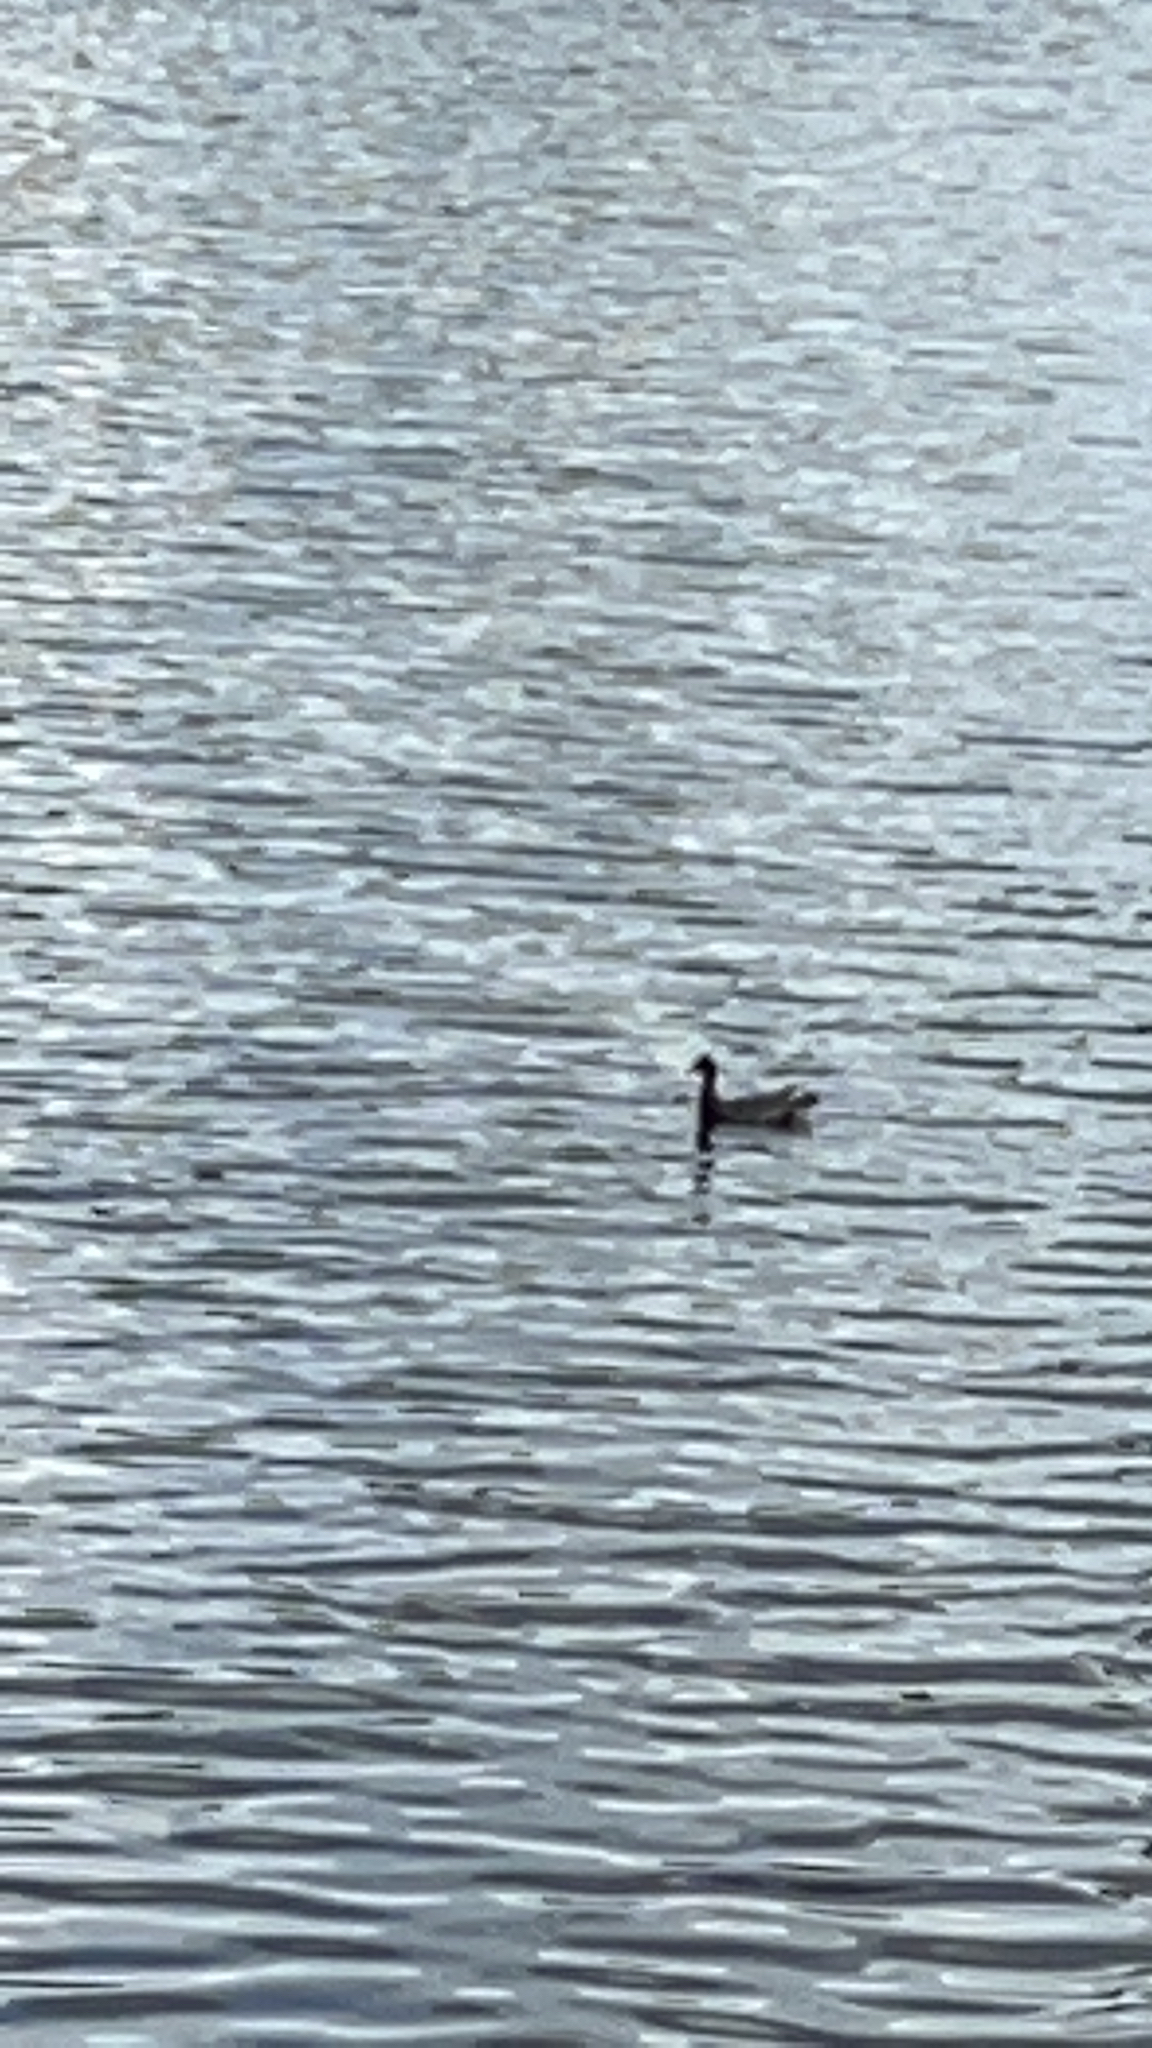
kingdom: Animalia
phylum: Chordata
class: Aves
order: Gruiformes
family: Rallidae
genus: Gallinula
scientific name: Gallinula chloropus
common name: Common moorhen
